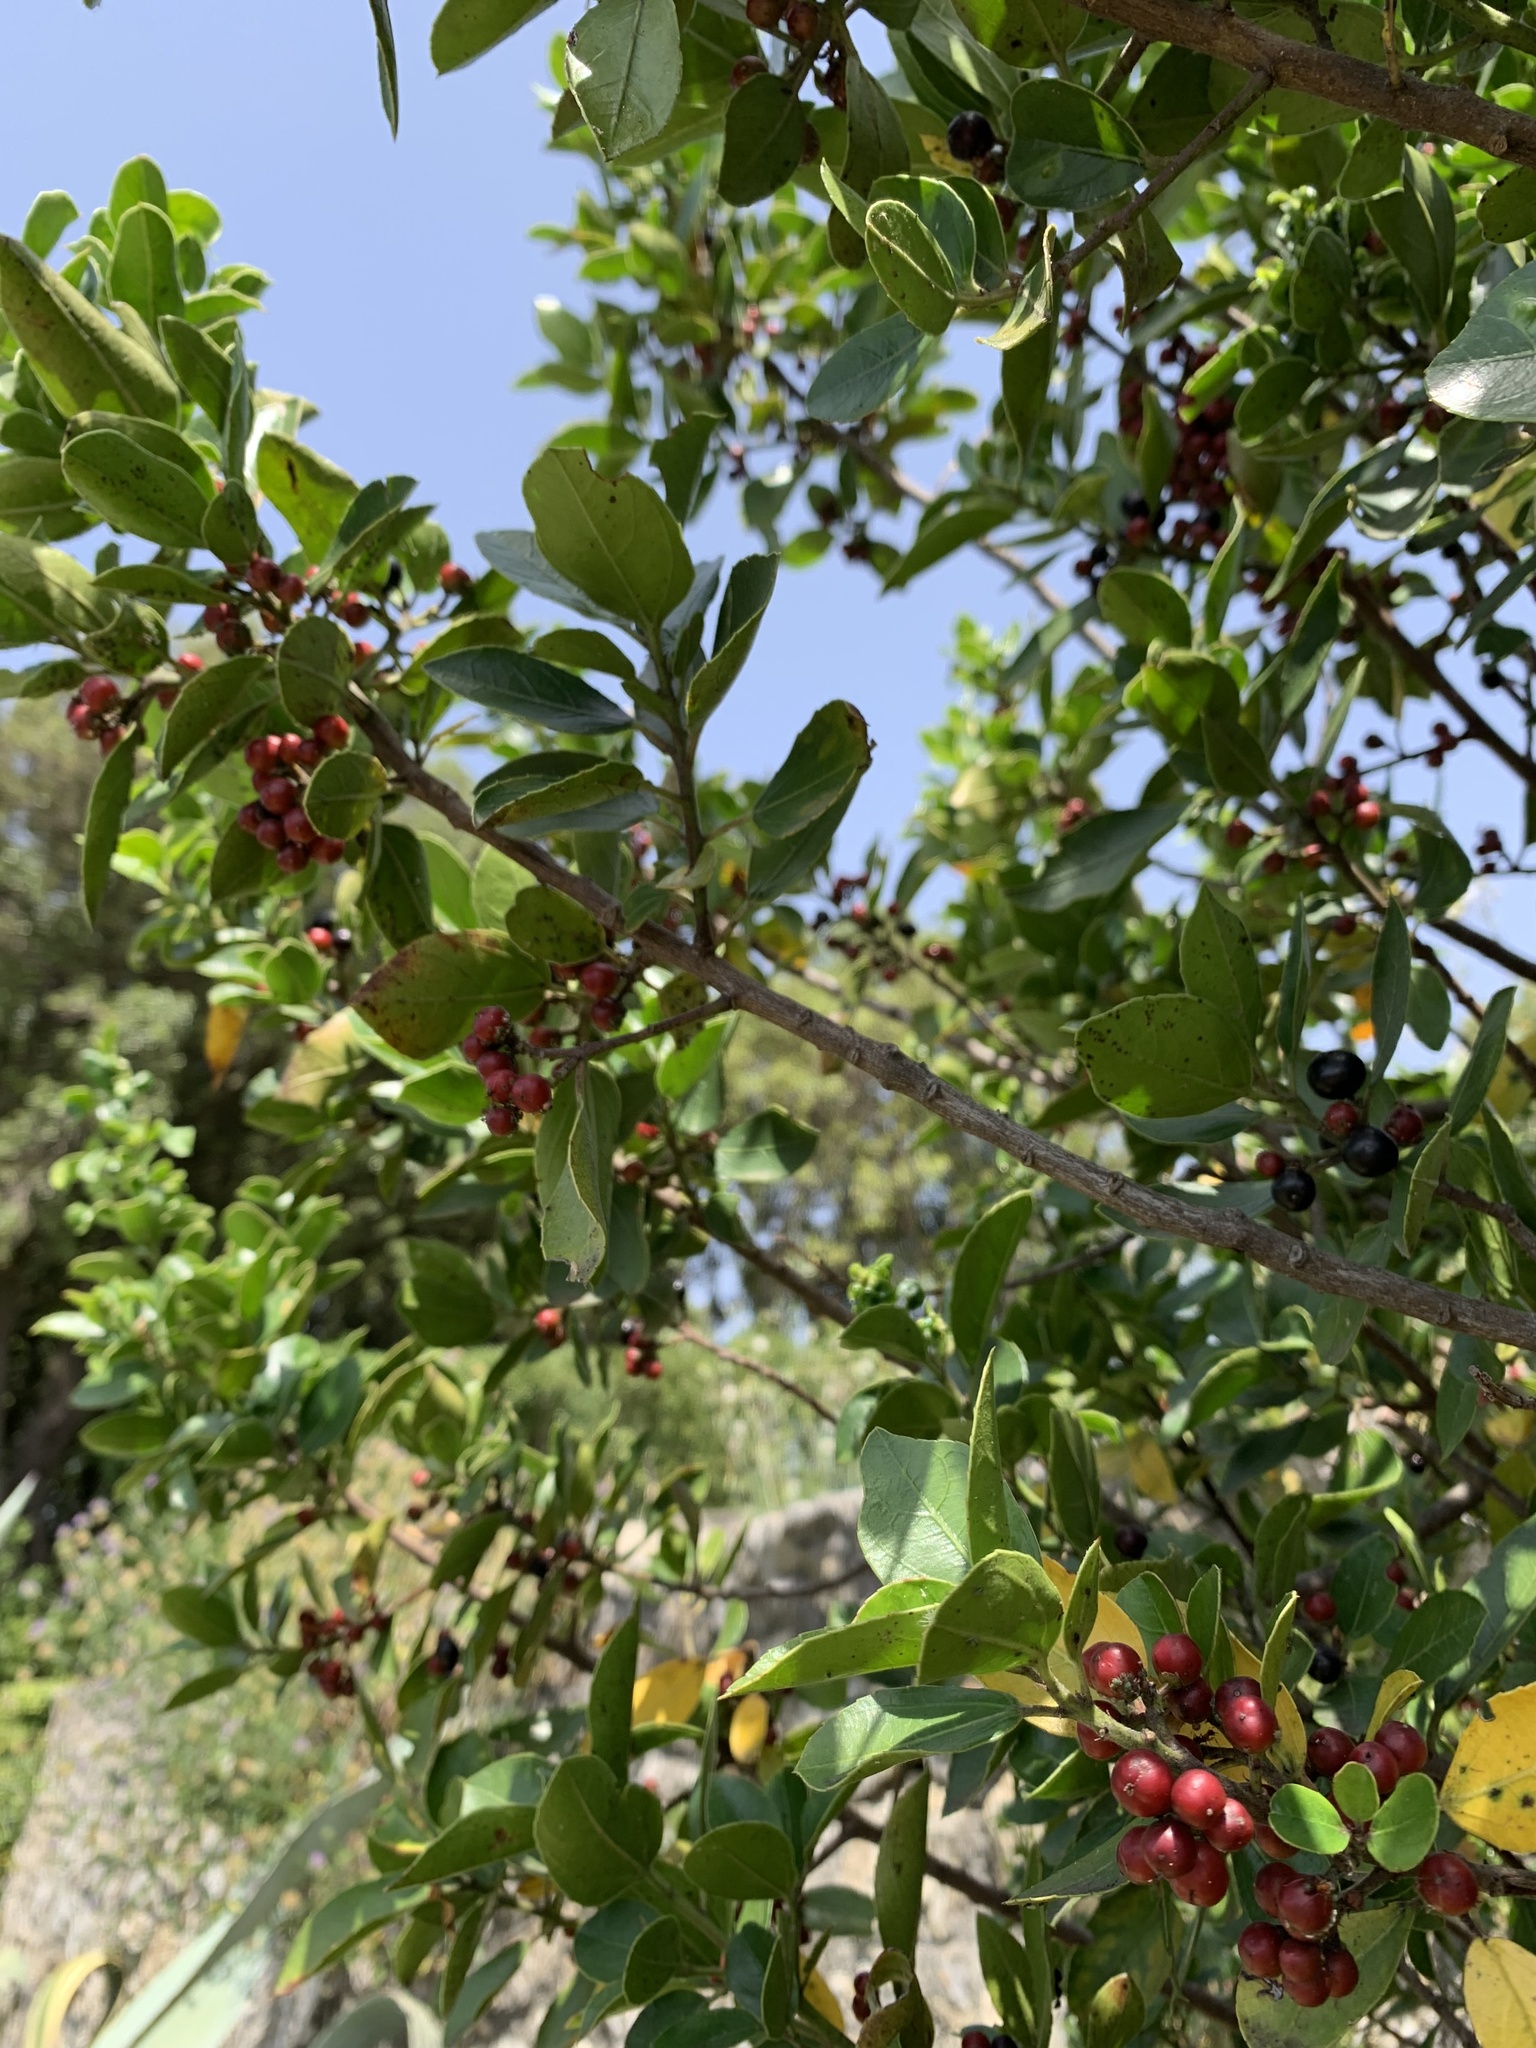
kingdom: Plantae
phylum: Tracheophyta
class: Magnoliopsida
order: Rosales
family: Rhamnaceae
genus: Rhamnus
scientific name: Rhamnus alaternus
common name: Mediterranean buckthorn
